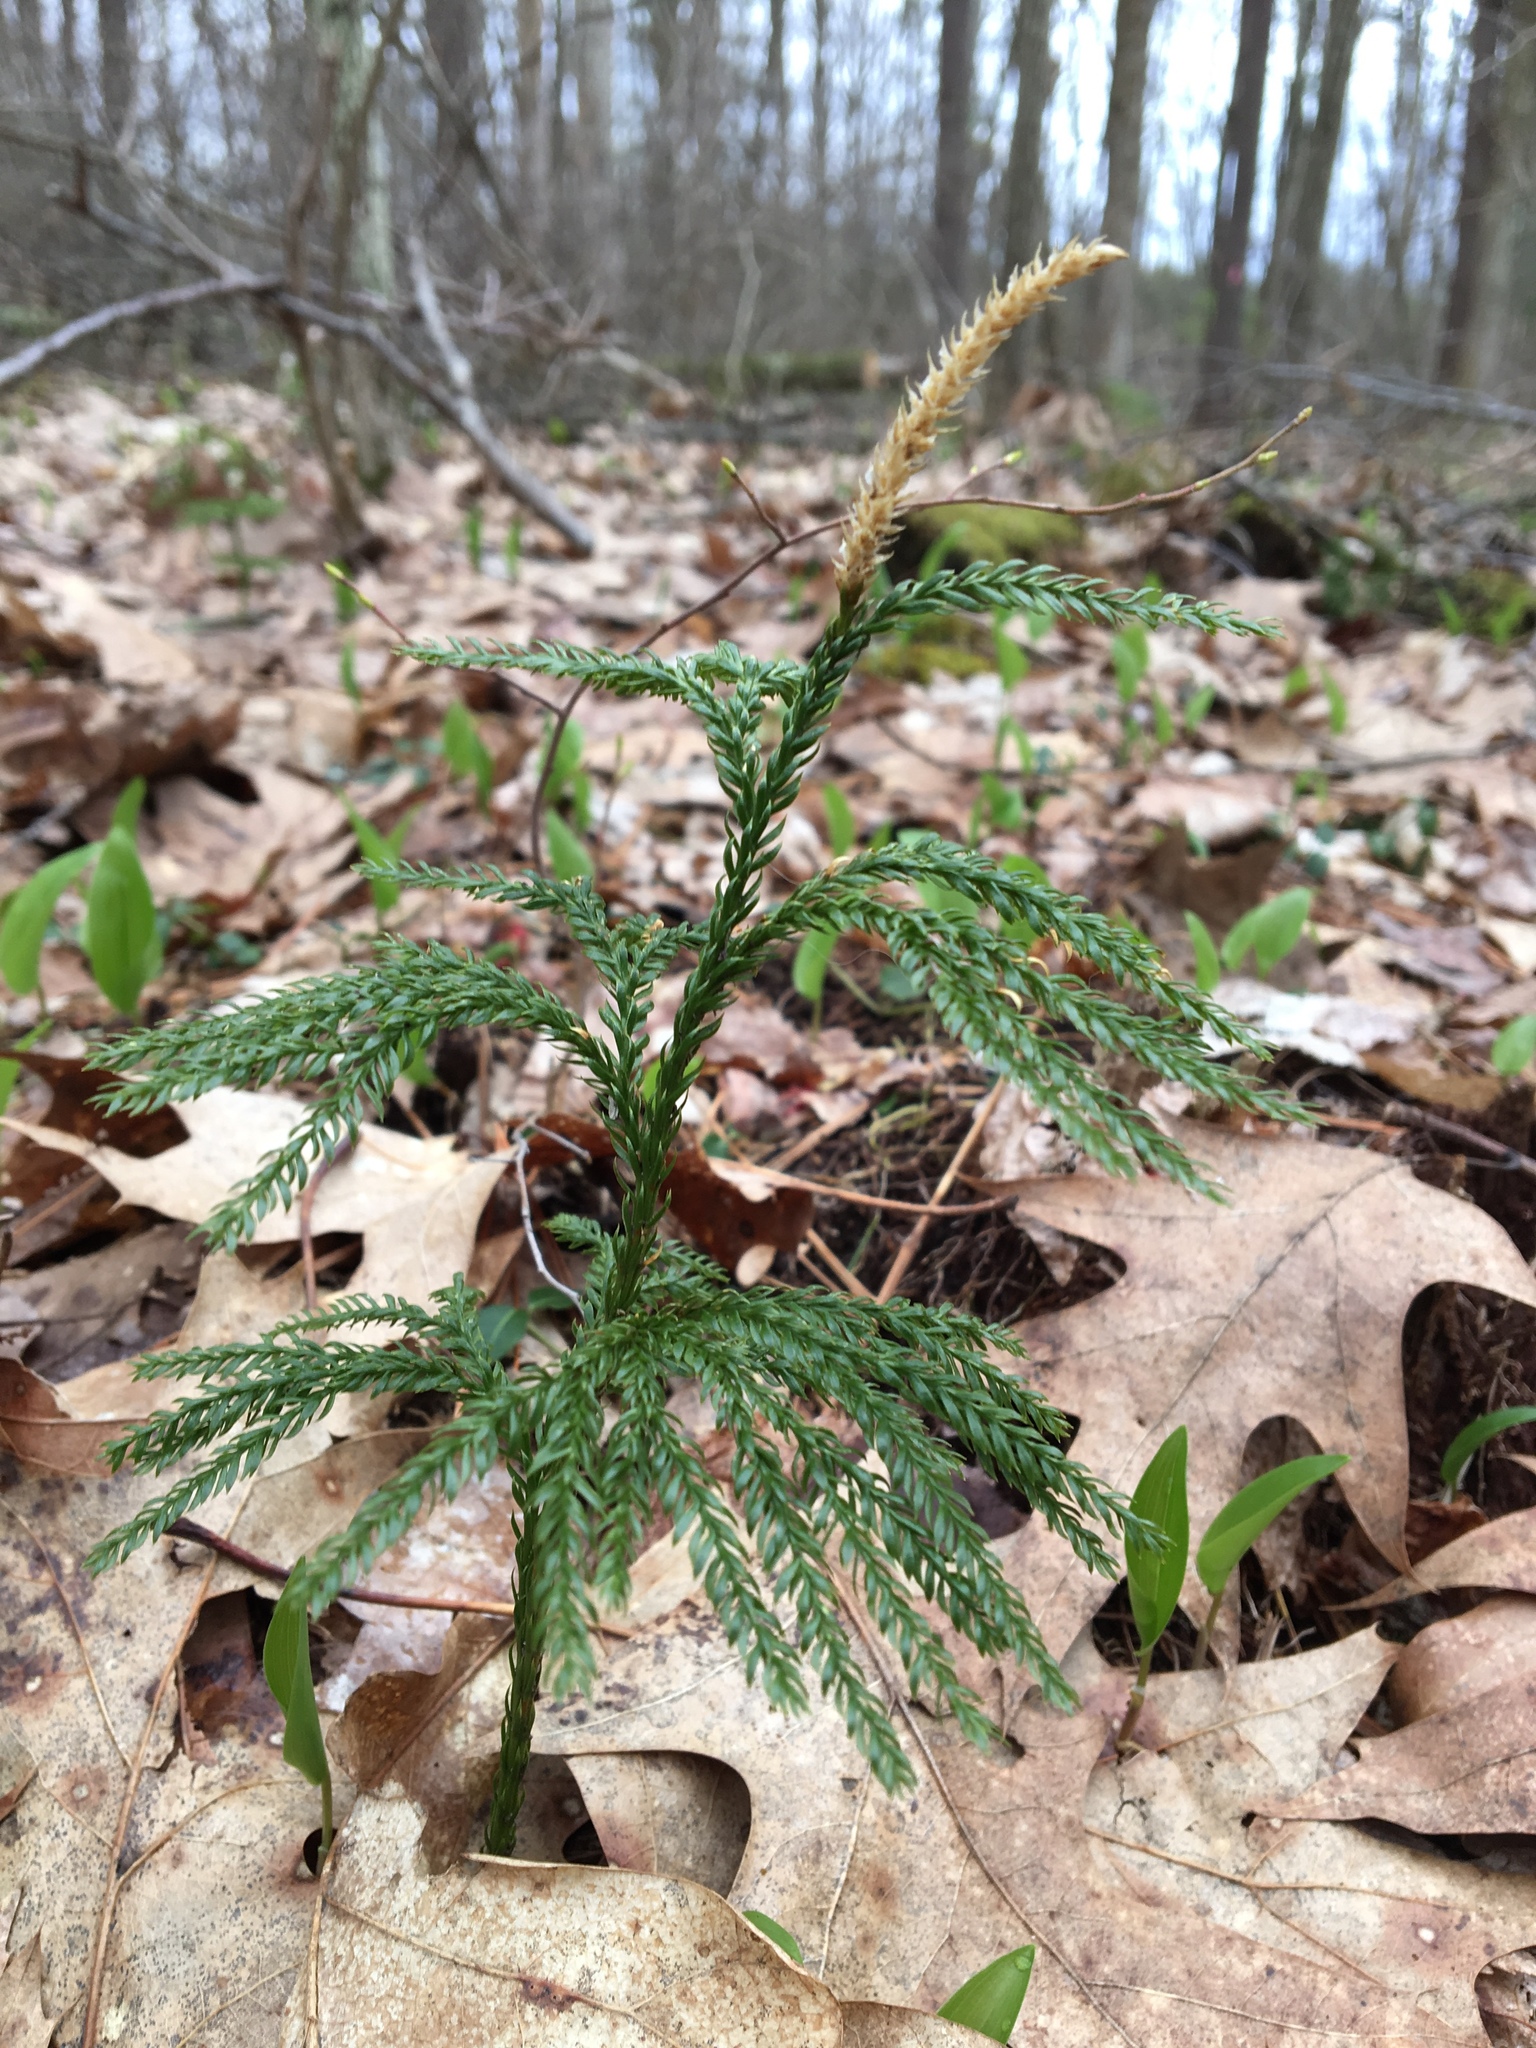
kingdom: Plantae
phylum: Tracheophyta
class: Lycopodiopsida
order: Lycopodiales
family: Lycopodiaceae
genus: Dendrolycopodium
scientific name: Dendrolycopodium obscurum
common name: Common ground-pine
